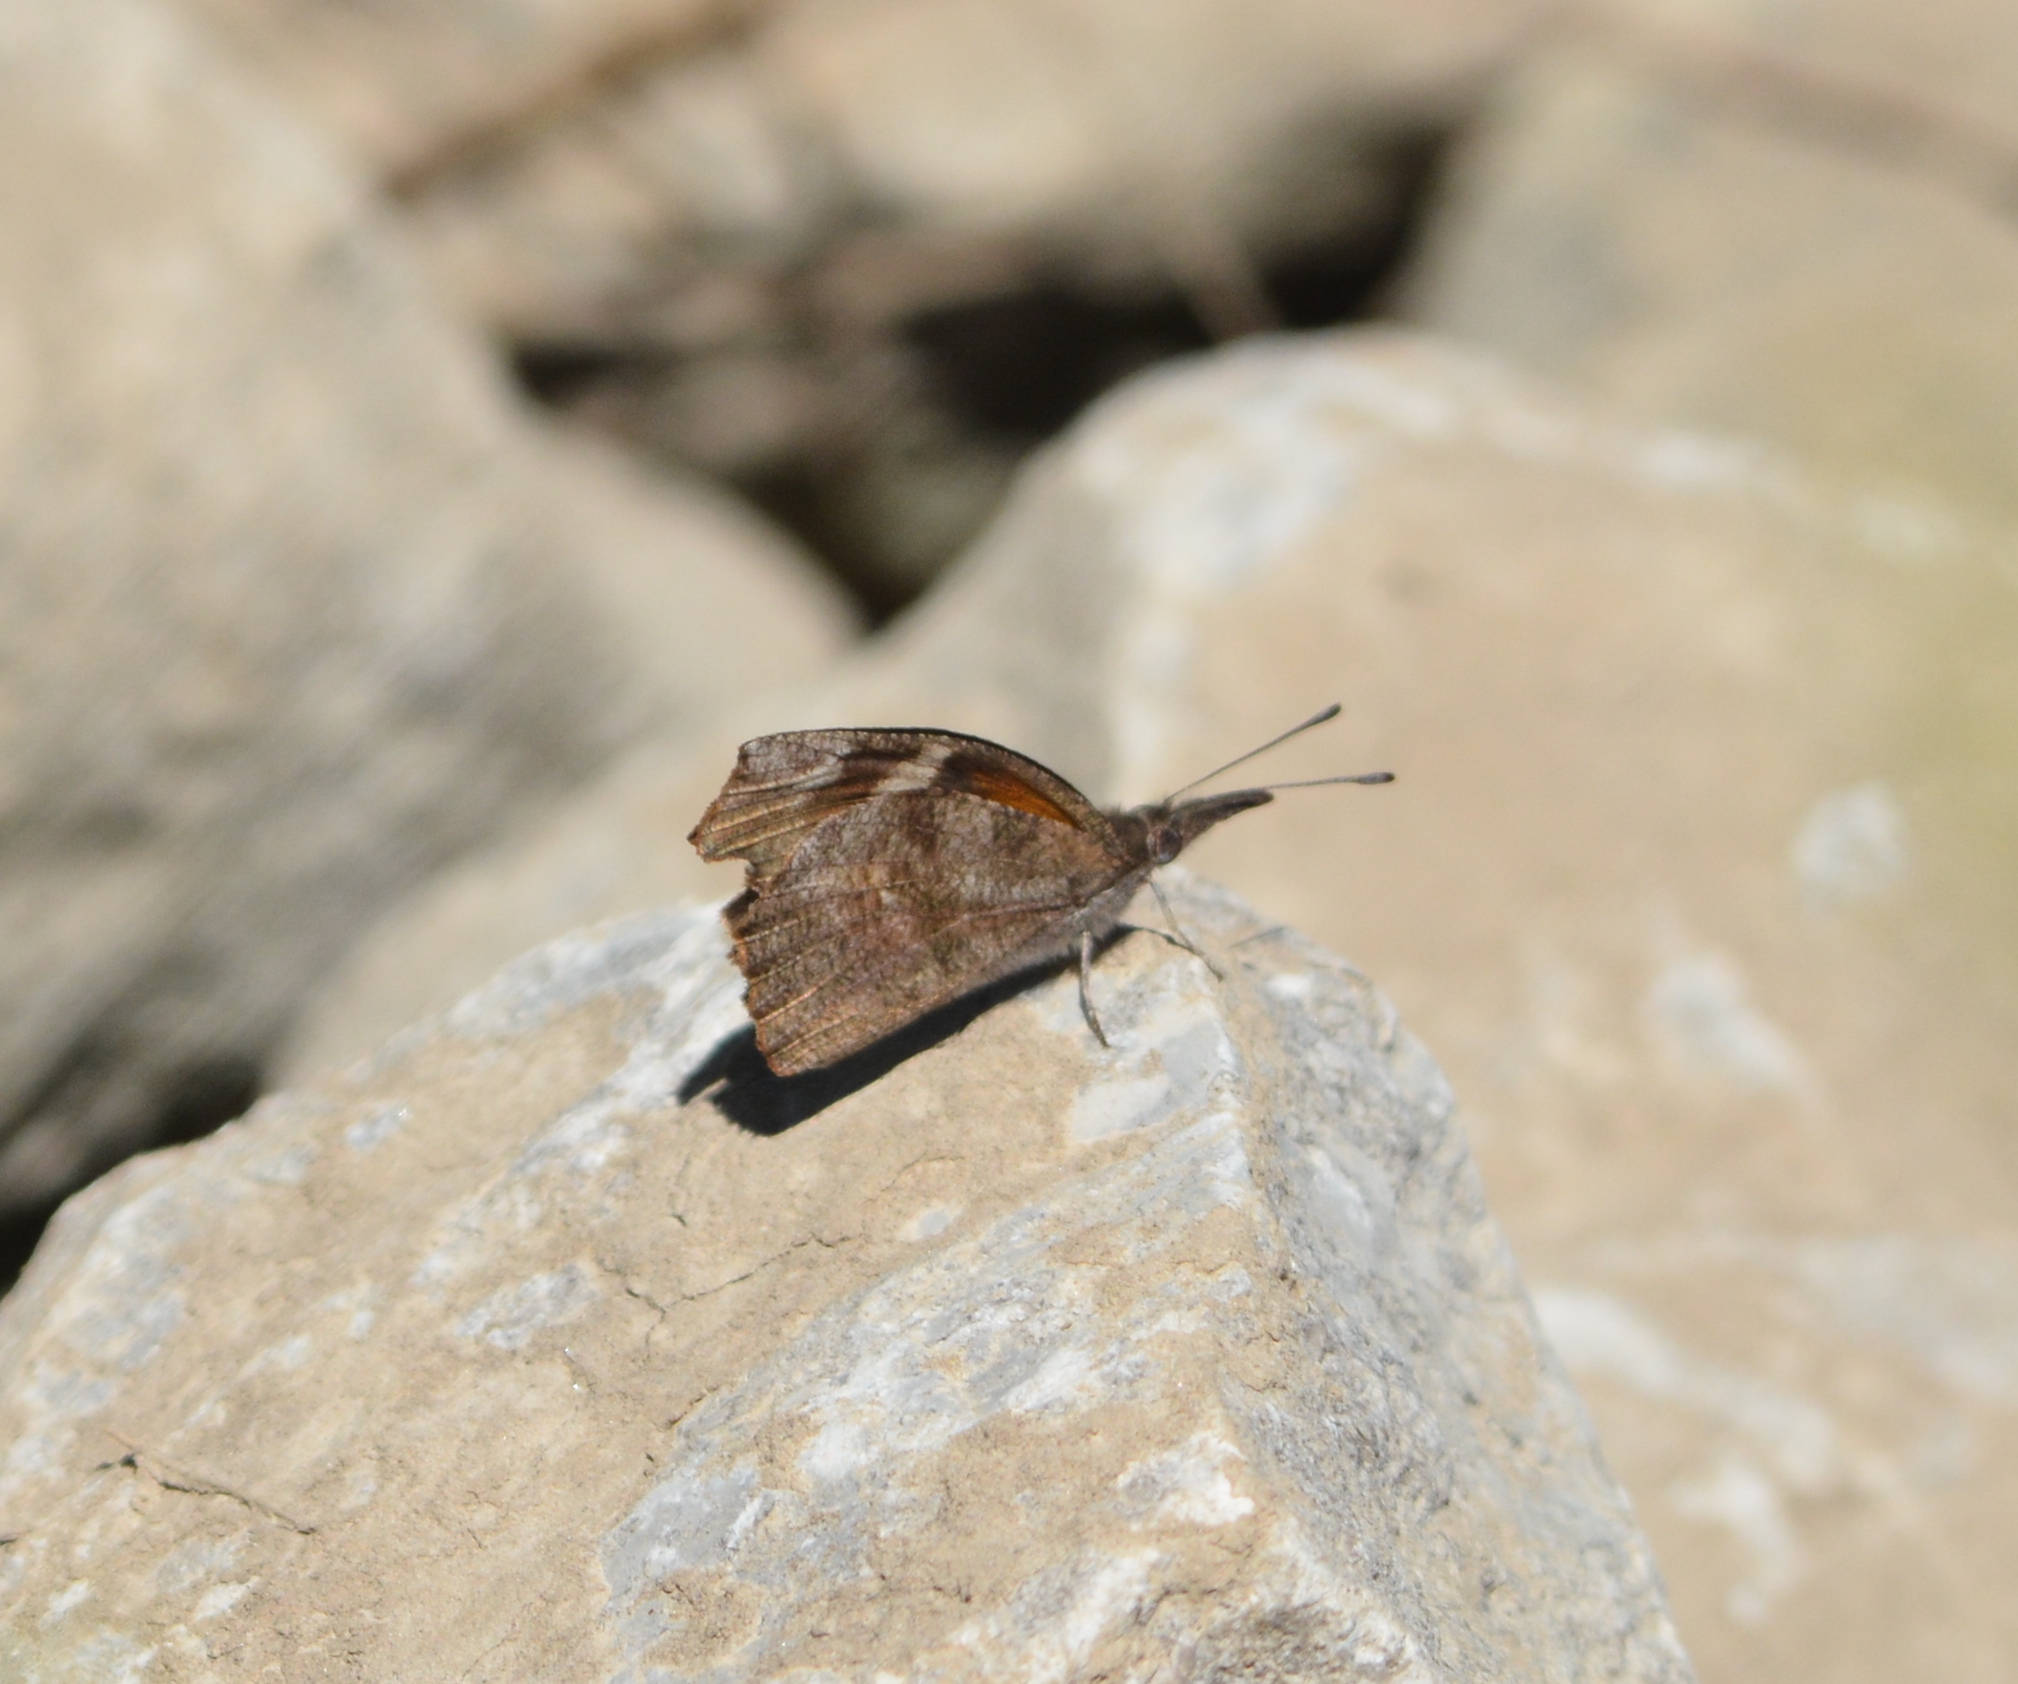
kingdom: Animalia
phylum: Arthropoda
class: Insecta
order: Lepidoptera
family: Nymphalidae
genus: Libytheana
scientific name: Libytheana carinenta
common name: American snout
